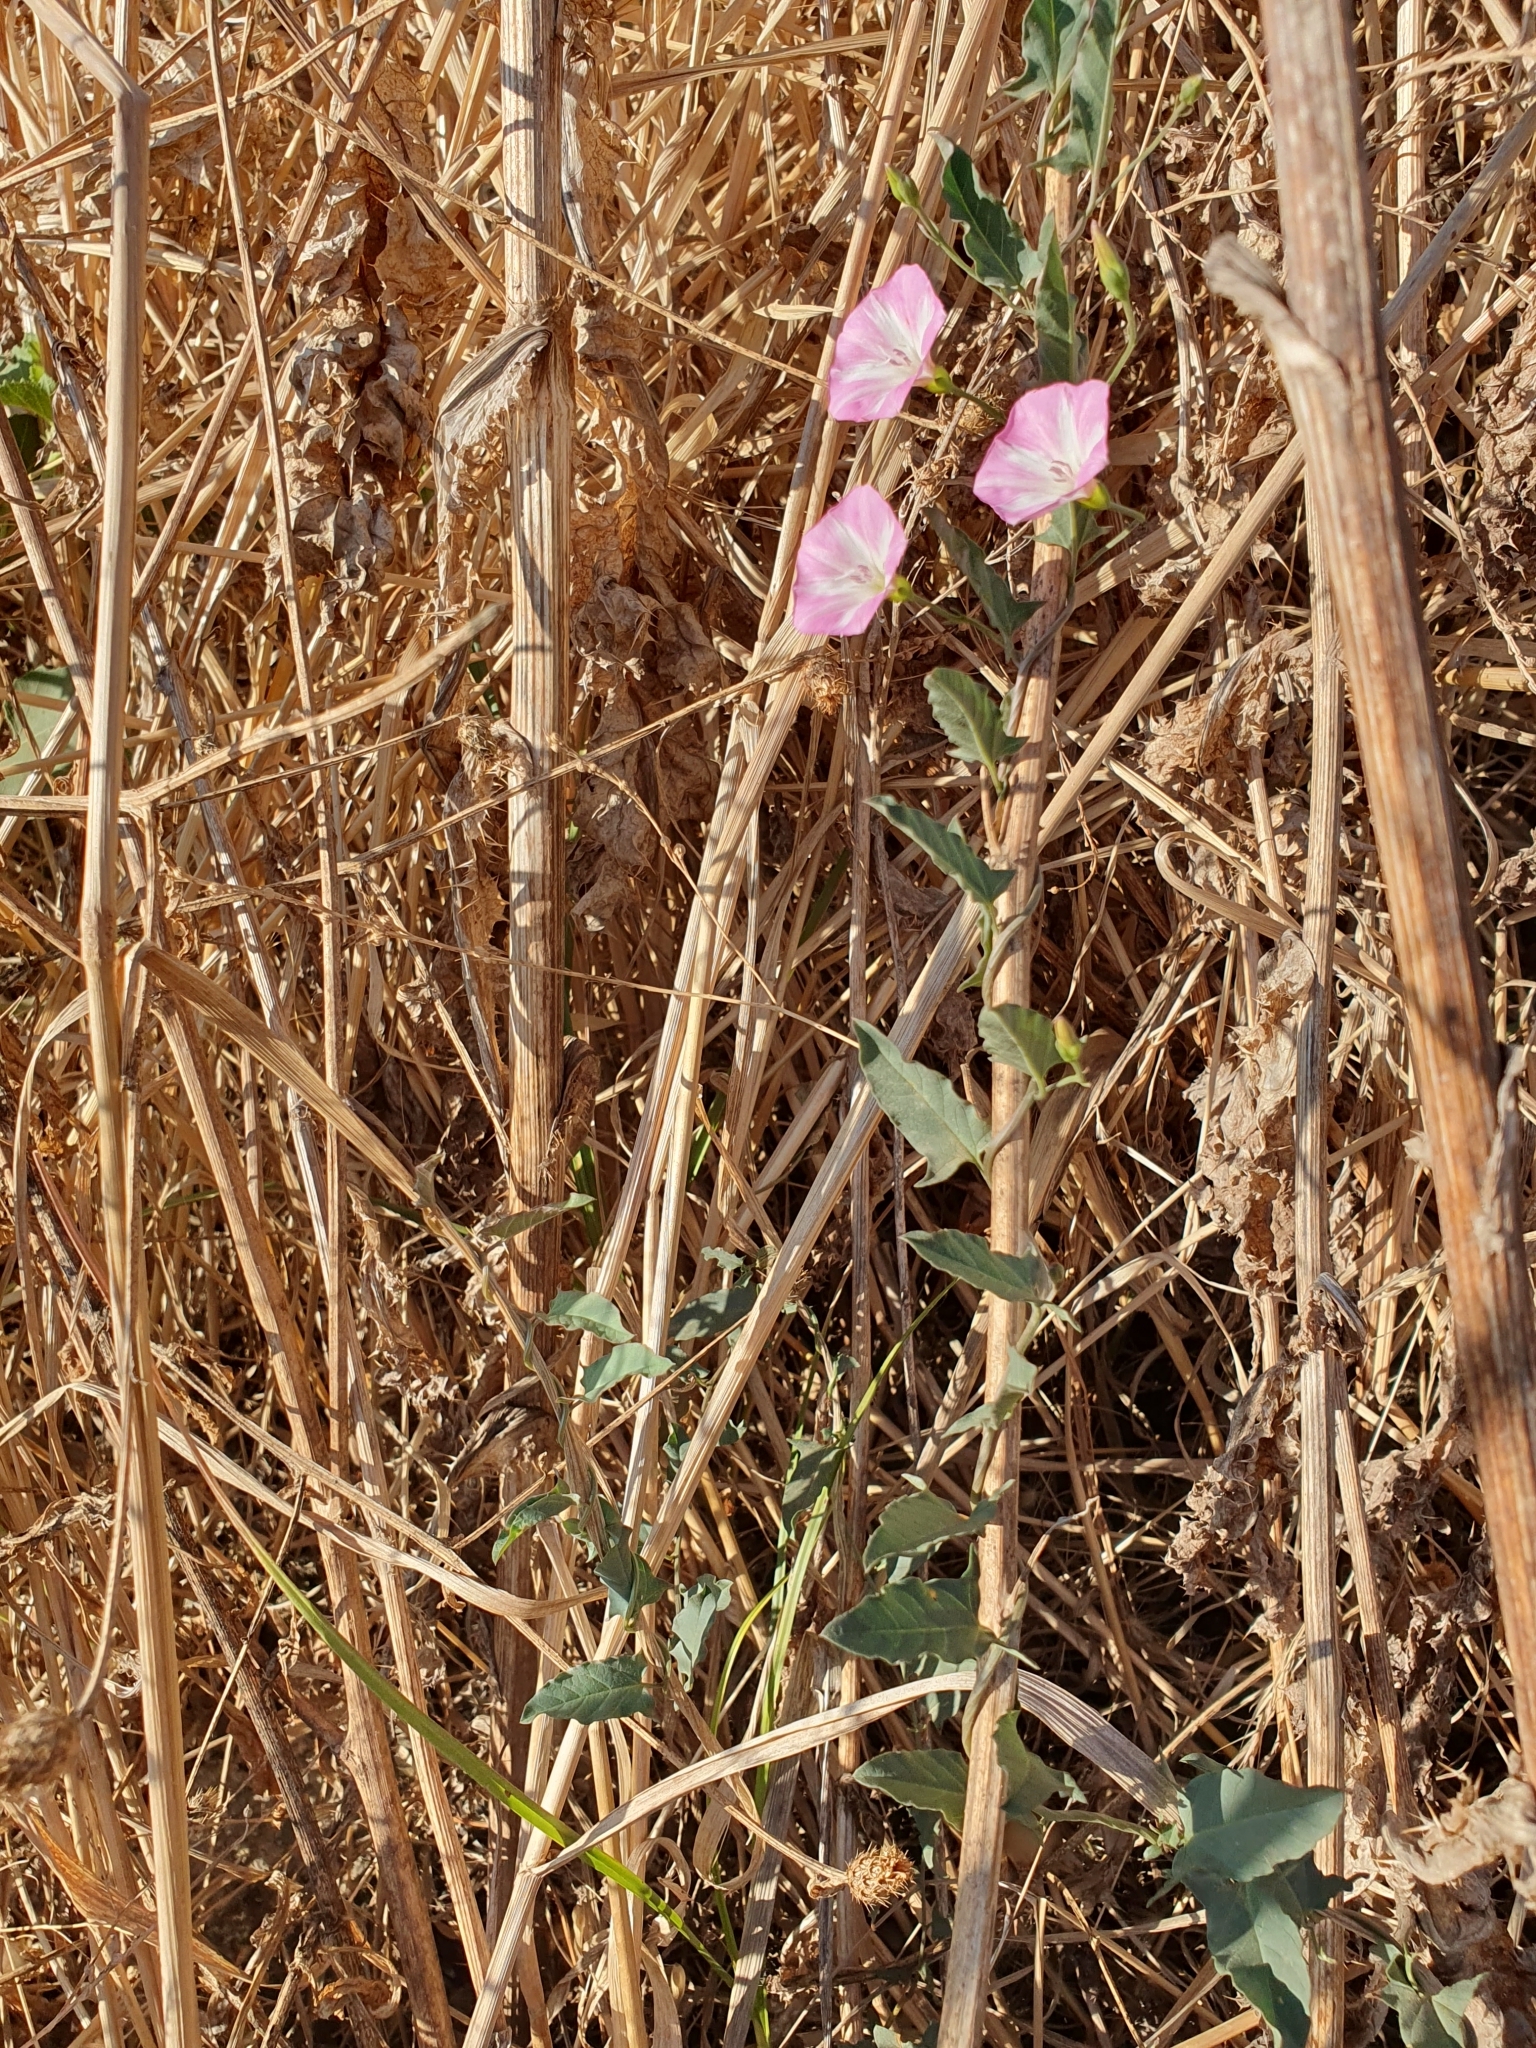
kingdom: Plantae
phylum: Tracheophyta
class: Magnoliopsida
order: Solanales
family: Convolvulaceae
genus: Convolvulus
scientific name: Convolvulus arvensis
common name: Field bindweed
